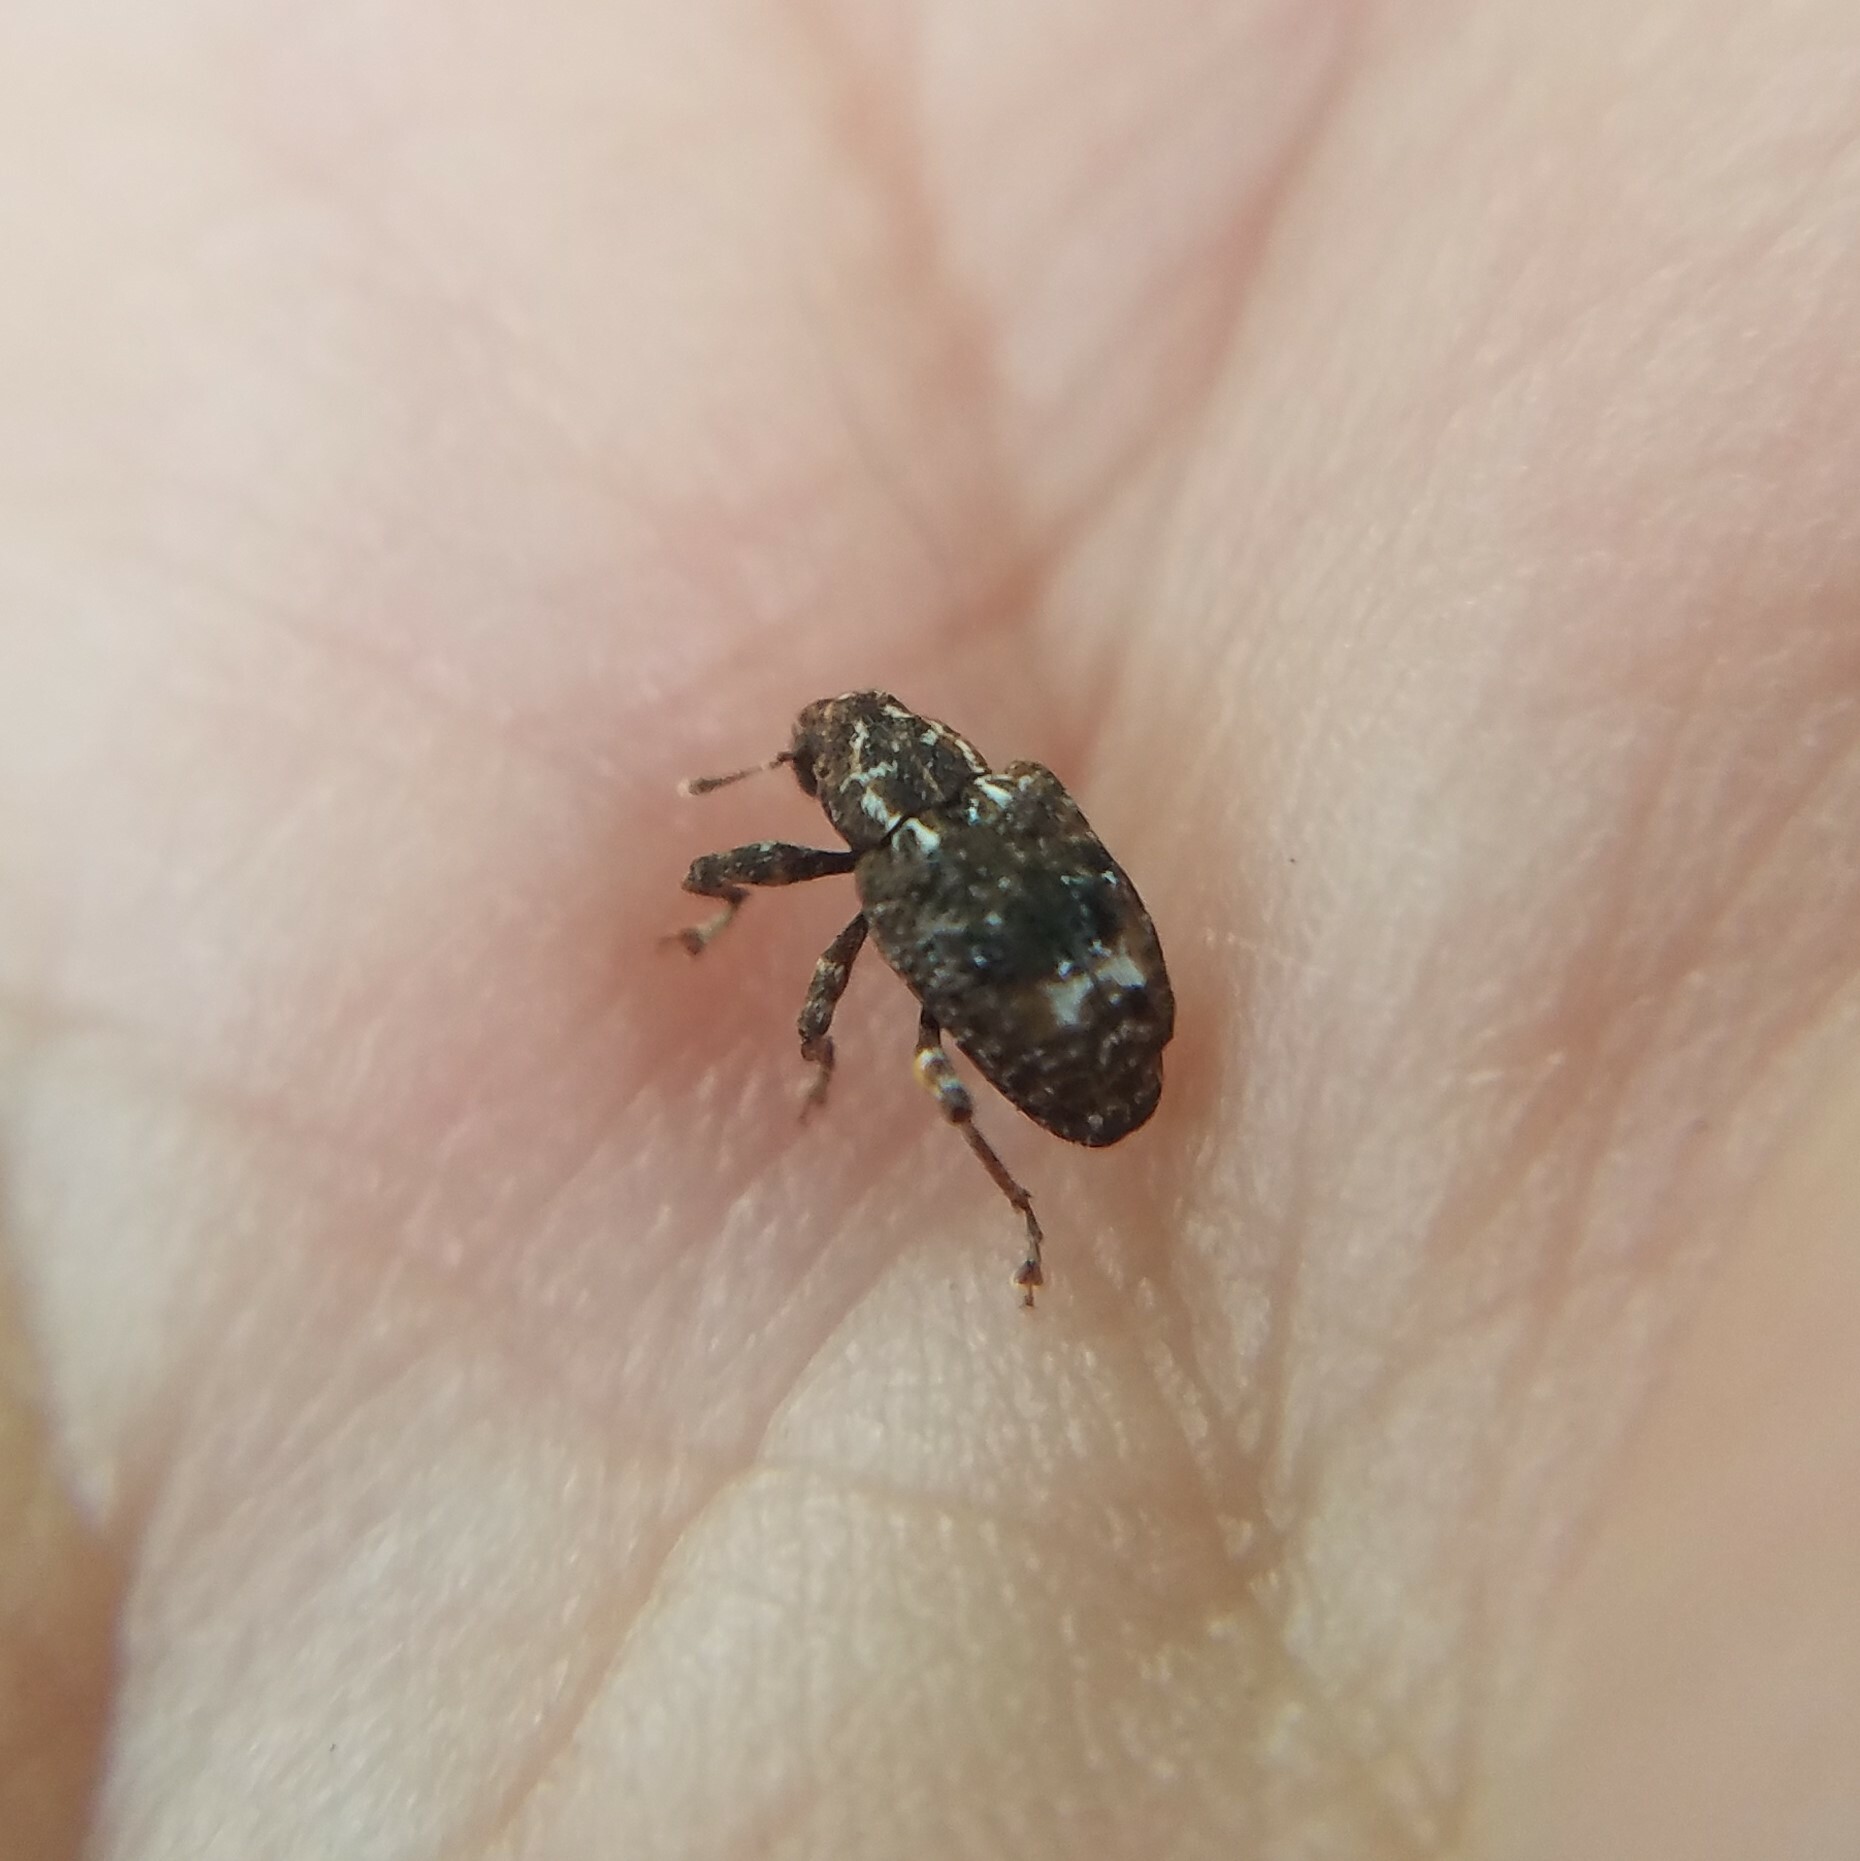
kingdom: Animalia
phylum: Arthropoda
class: Insecta
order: Coleoptera
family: Curculionidae
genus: Conotrachelus
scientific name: Conotrachelus nenuphar
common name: Plum curculio
